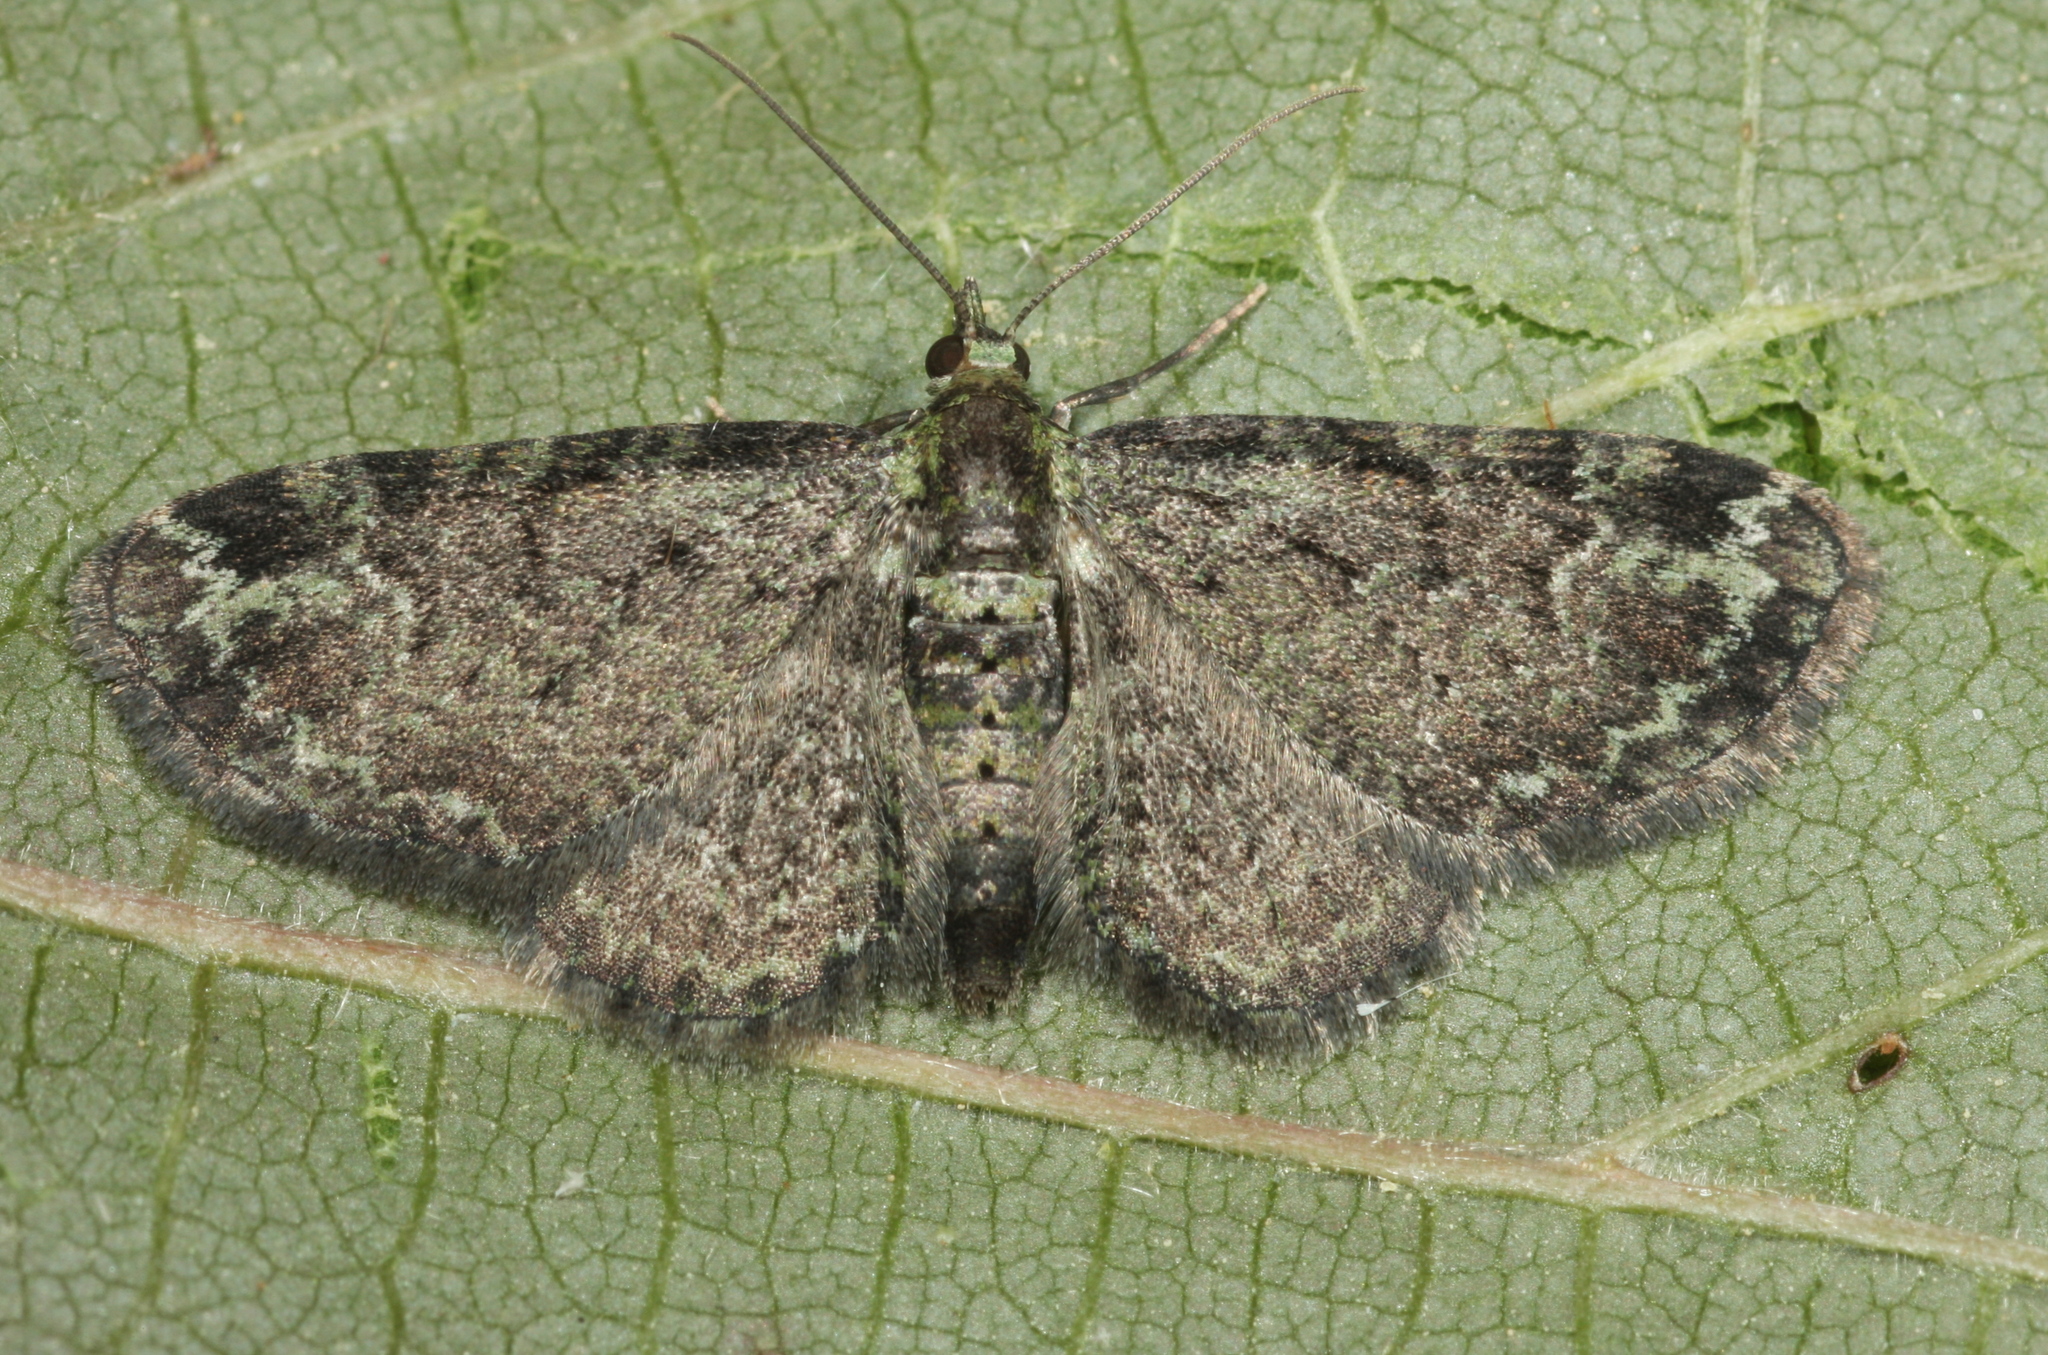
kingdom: Animalia
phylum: Arthropoda
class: Insecta
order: Lepidoptera
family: Geometridae
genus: Pasiphila
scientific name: Pasiphila rectangulata
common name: Green pug
